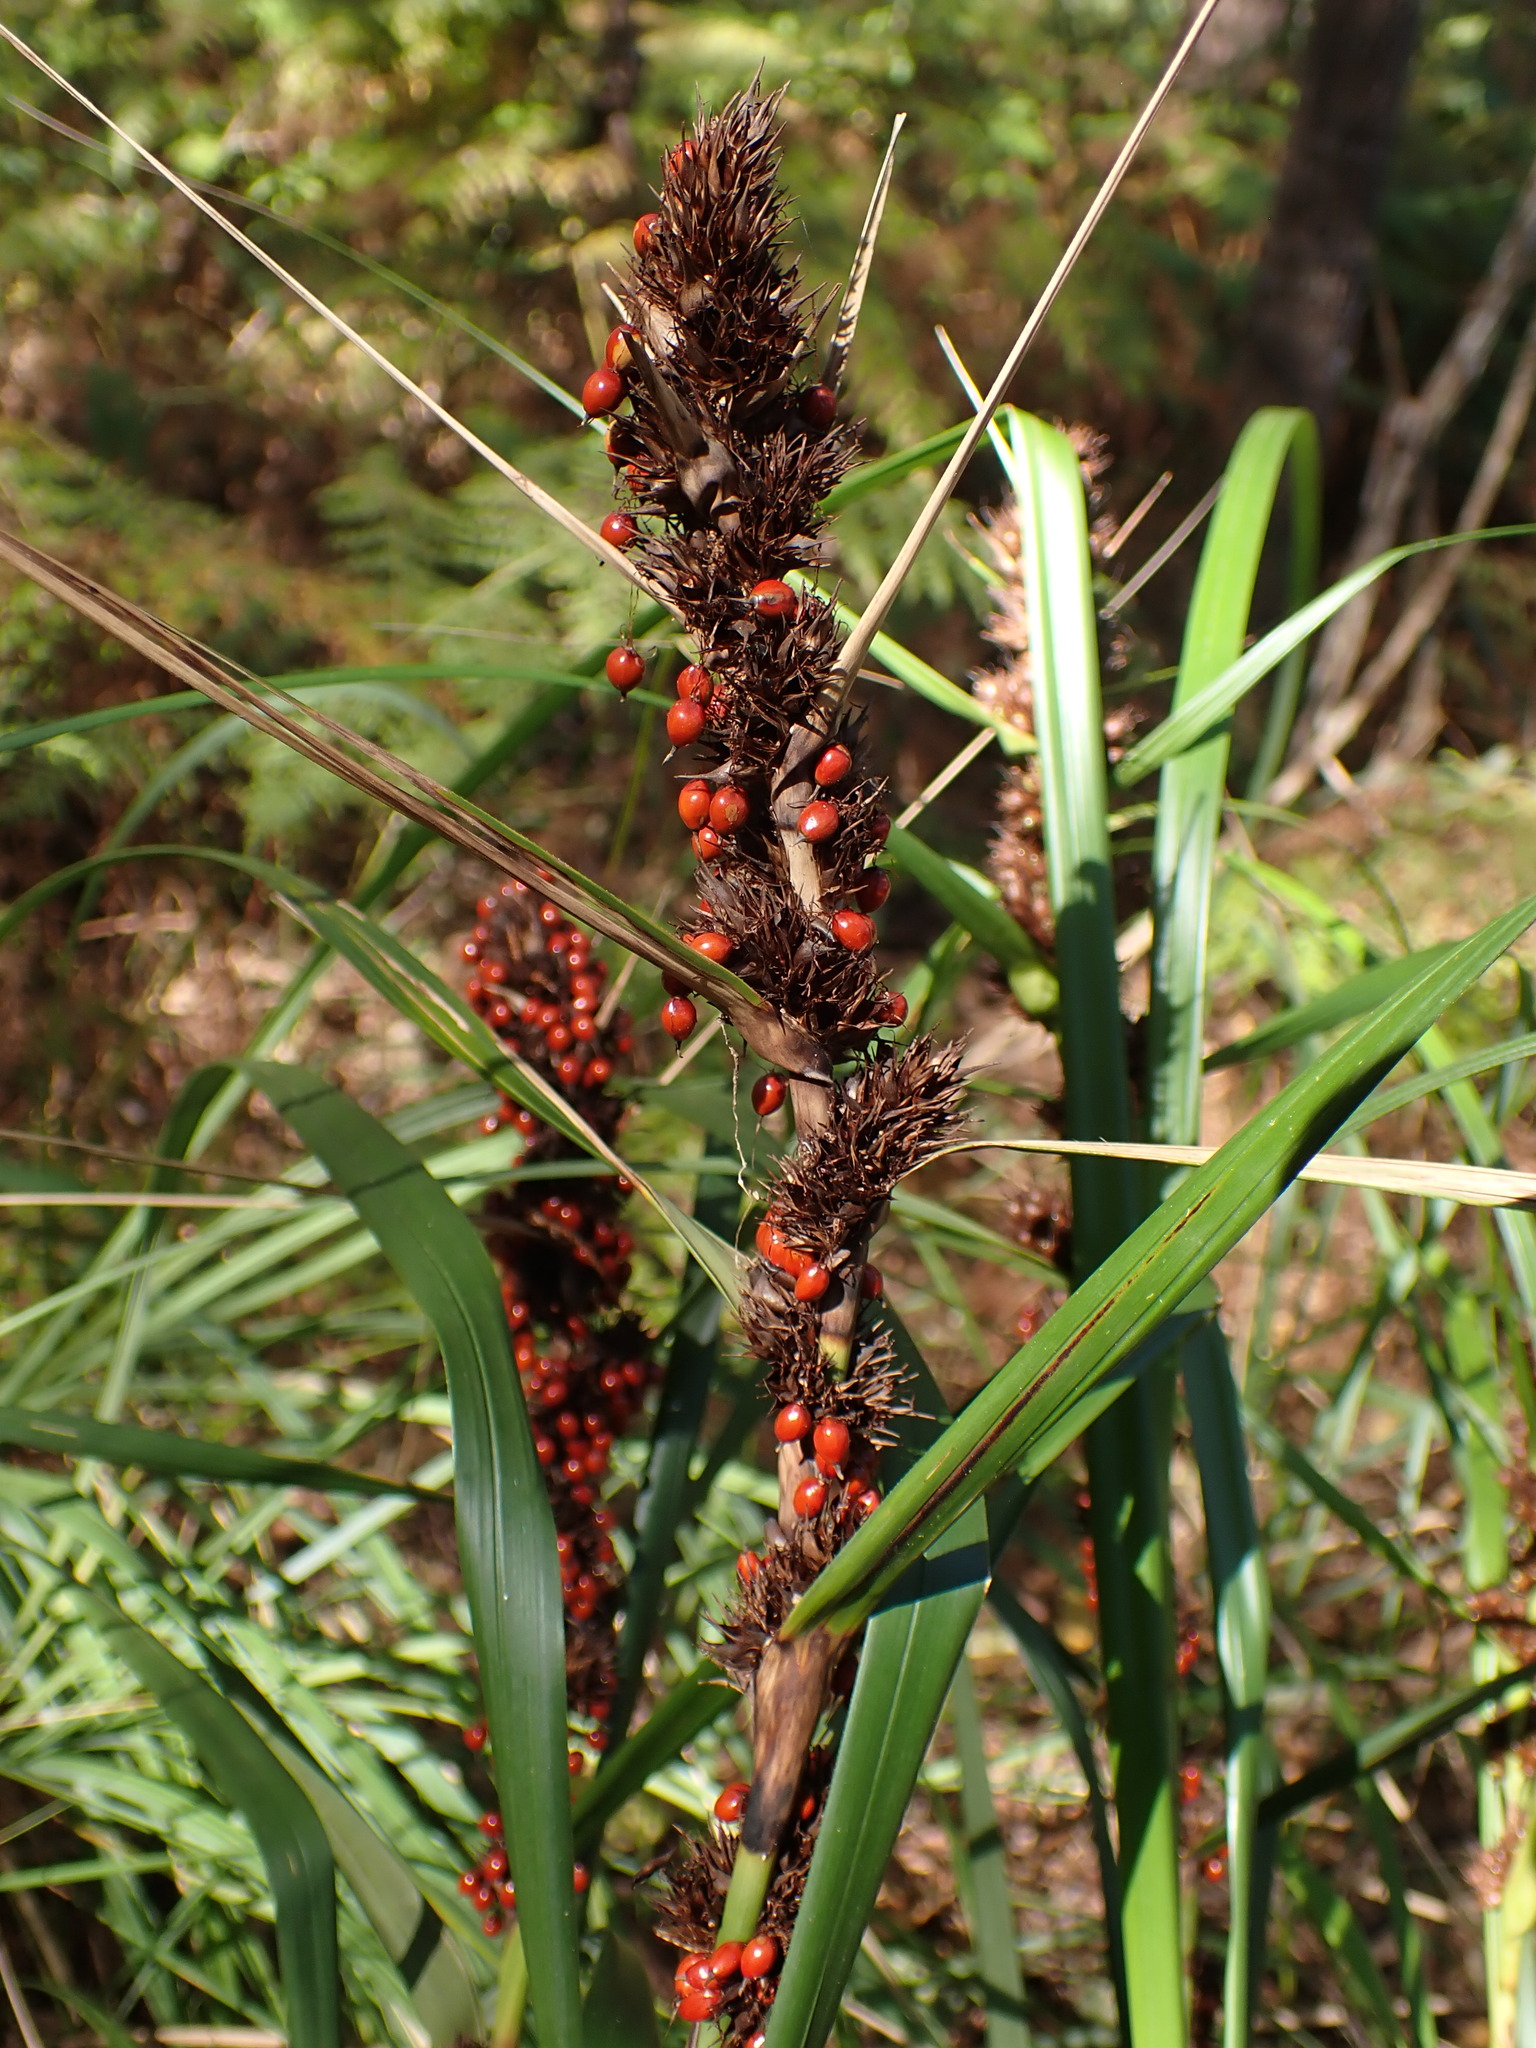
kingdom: Plantae
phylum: Tracheophyta
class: Liliopsida
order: Poales
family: Cyperaceae
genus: Gahnia
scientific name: Gahnia aspera
